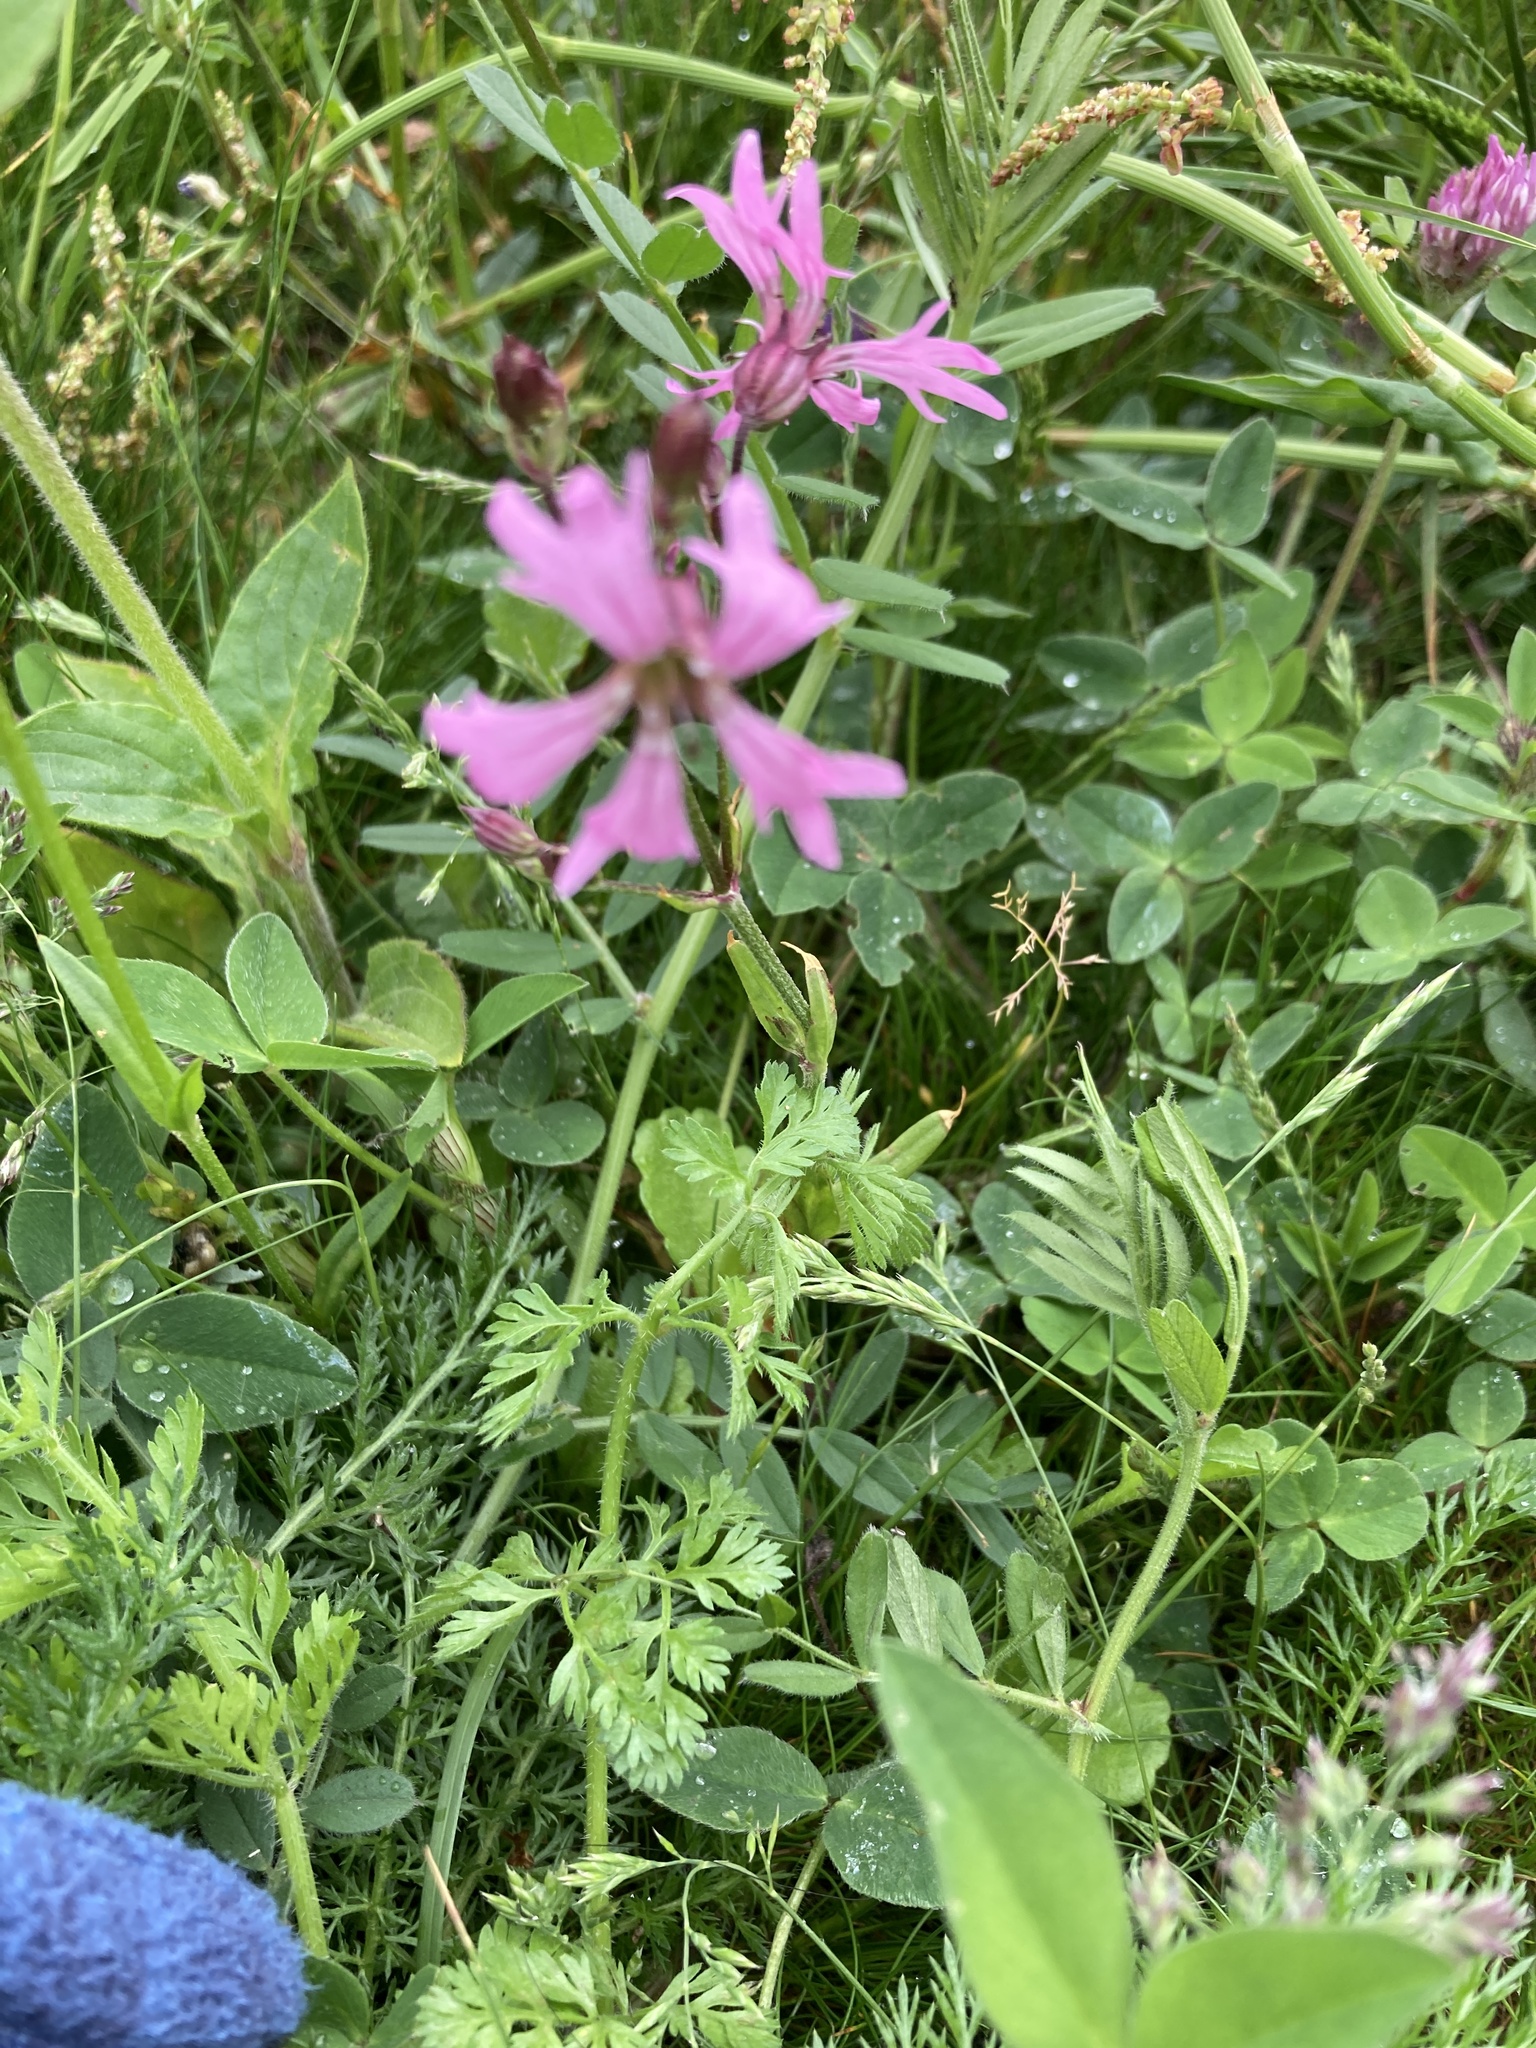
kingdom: Plantae
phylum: Tracheophyta
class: Magnoliopsida
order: Caryophyllales
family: Caryophyllaceae
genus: Silene
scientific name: Silene flos-cuculi
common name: Ragged-robin
